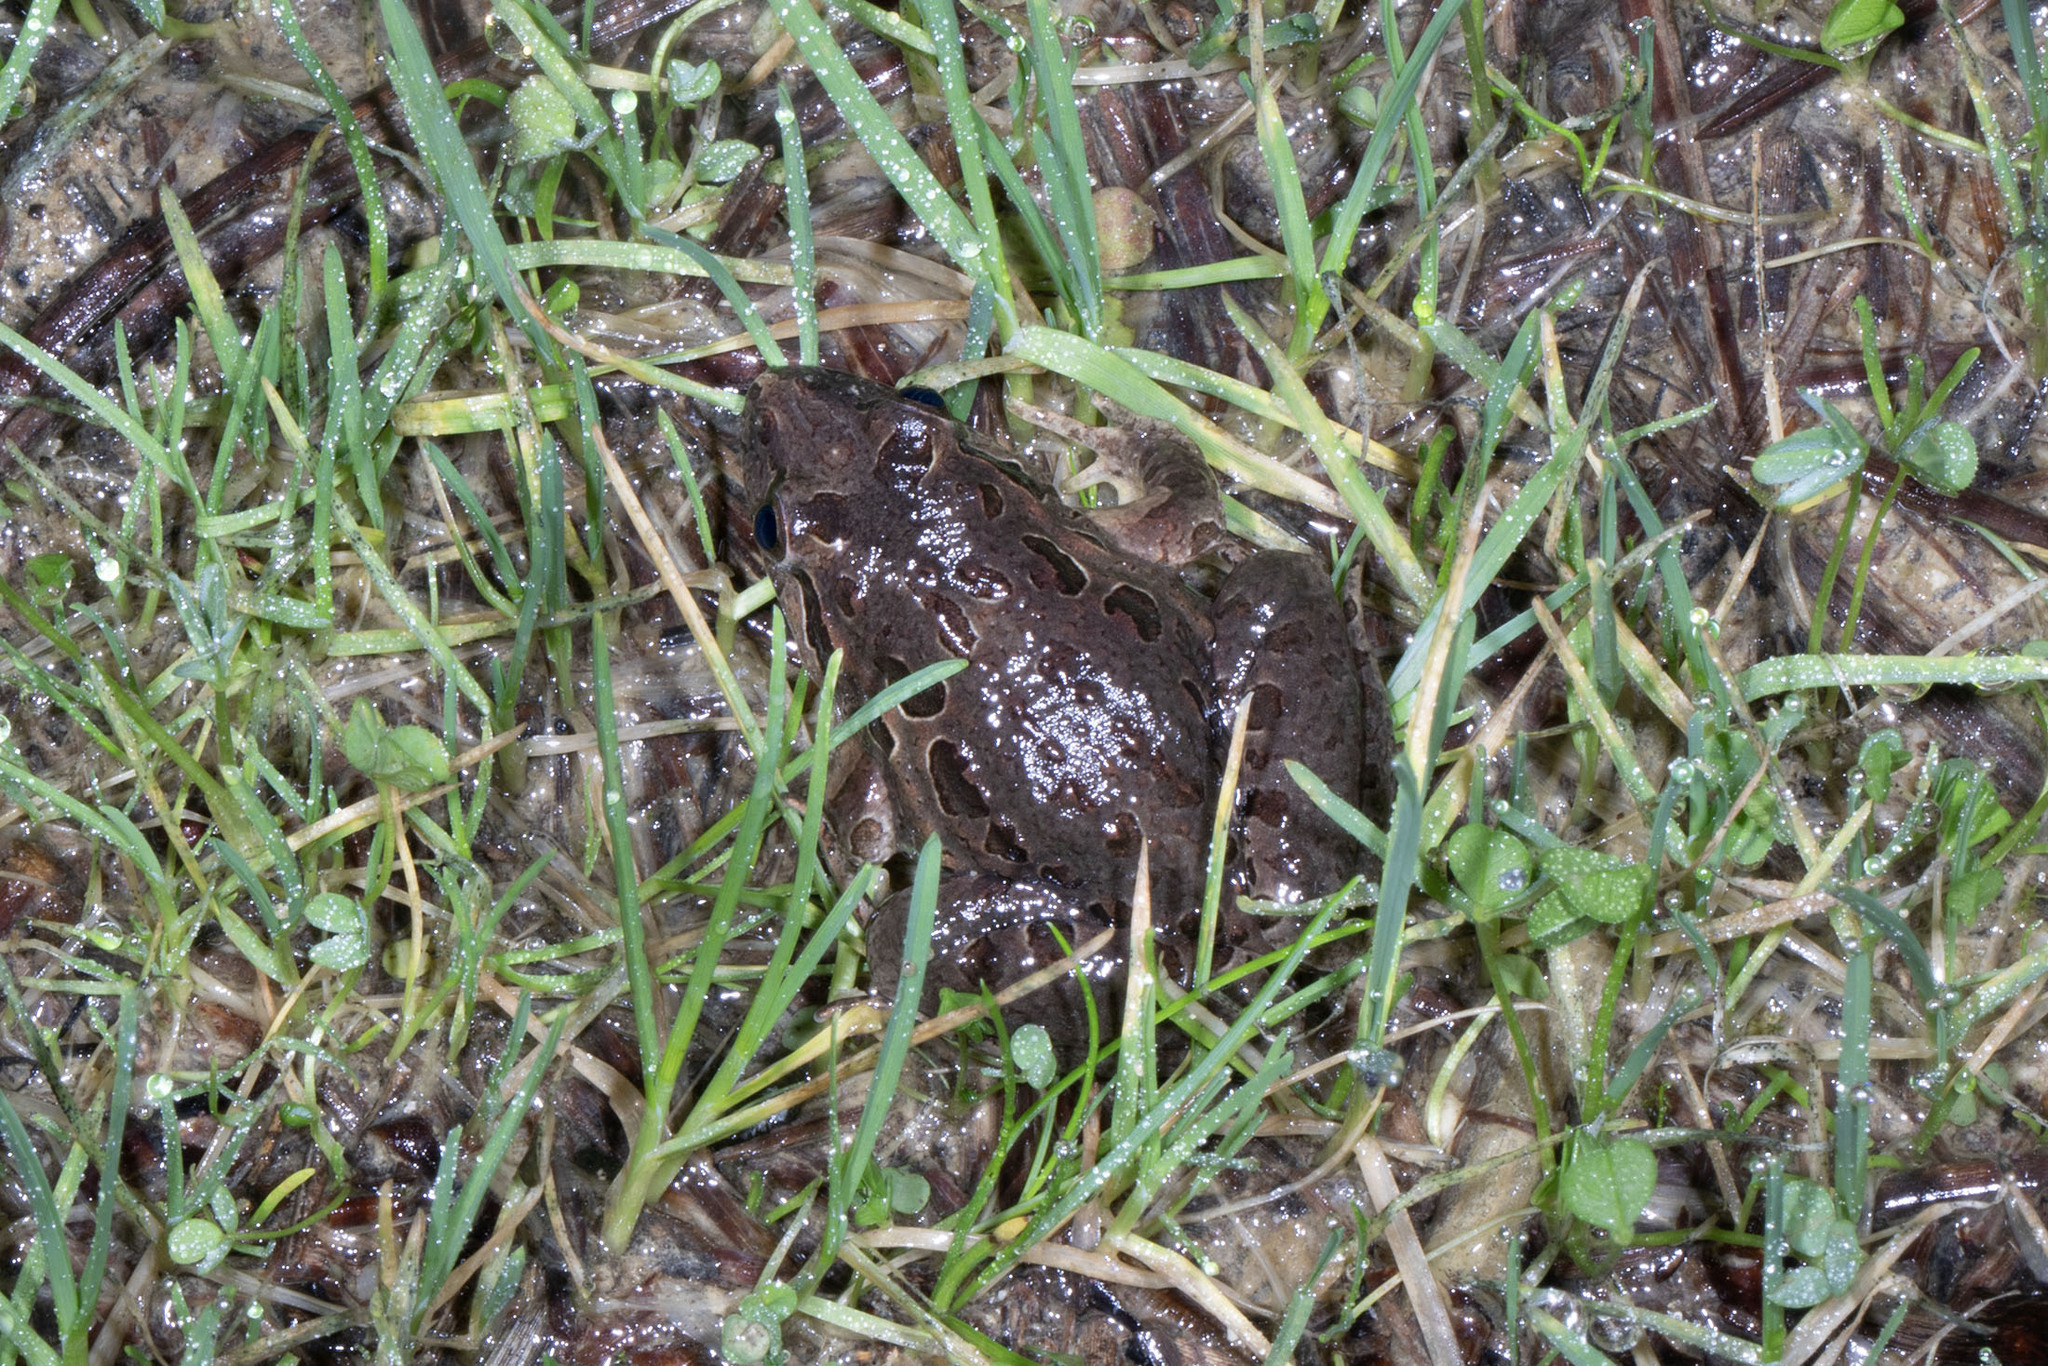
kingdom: Animalia
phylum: Chordata
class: Amphibia
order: Anura
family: Alytidae
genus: Discoglossus
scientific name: Discoglossus galganoi
